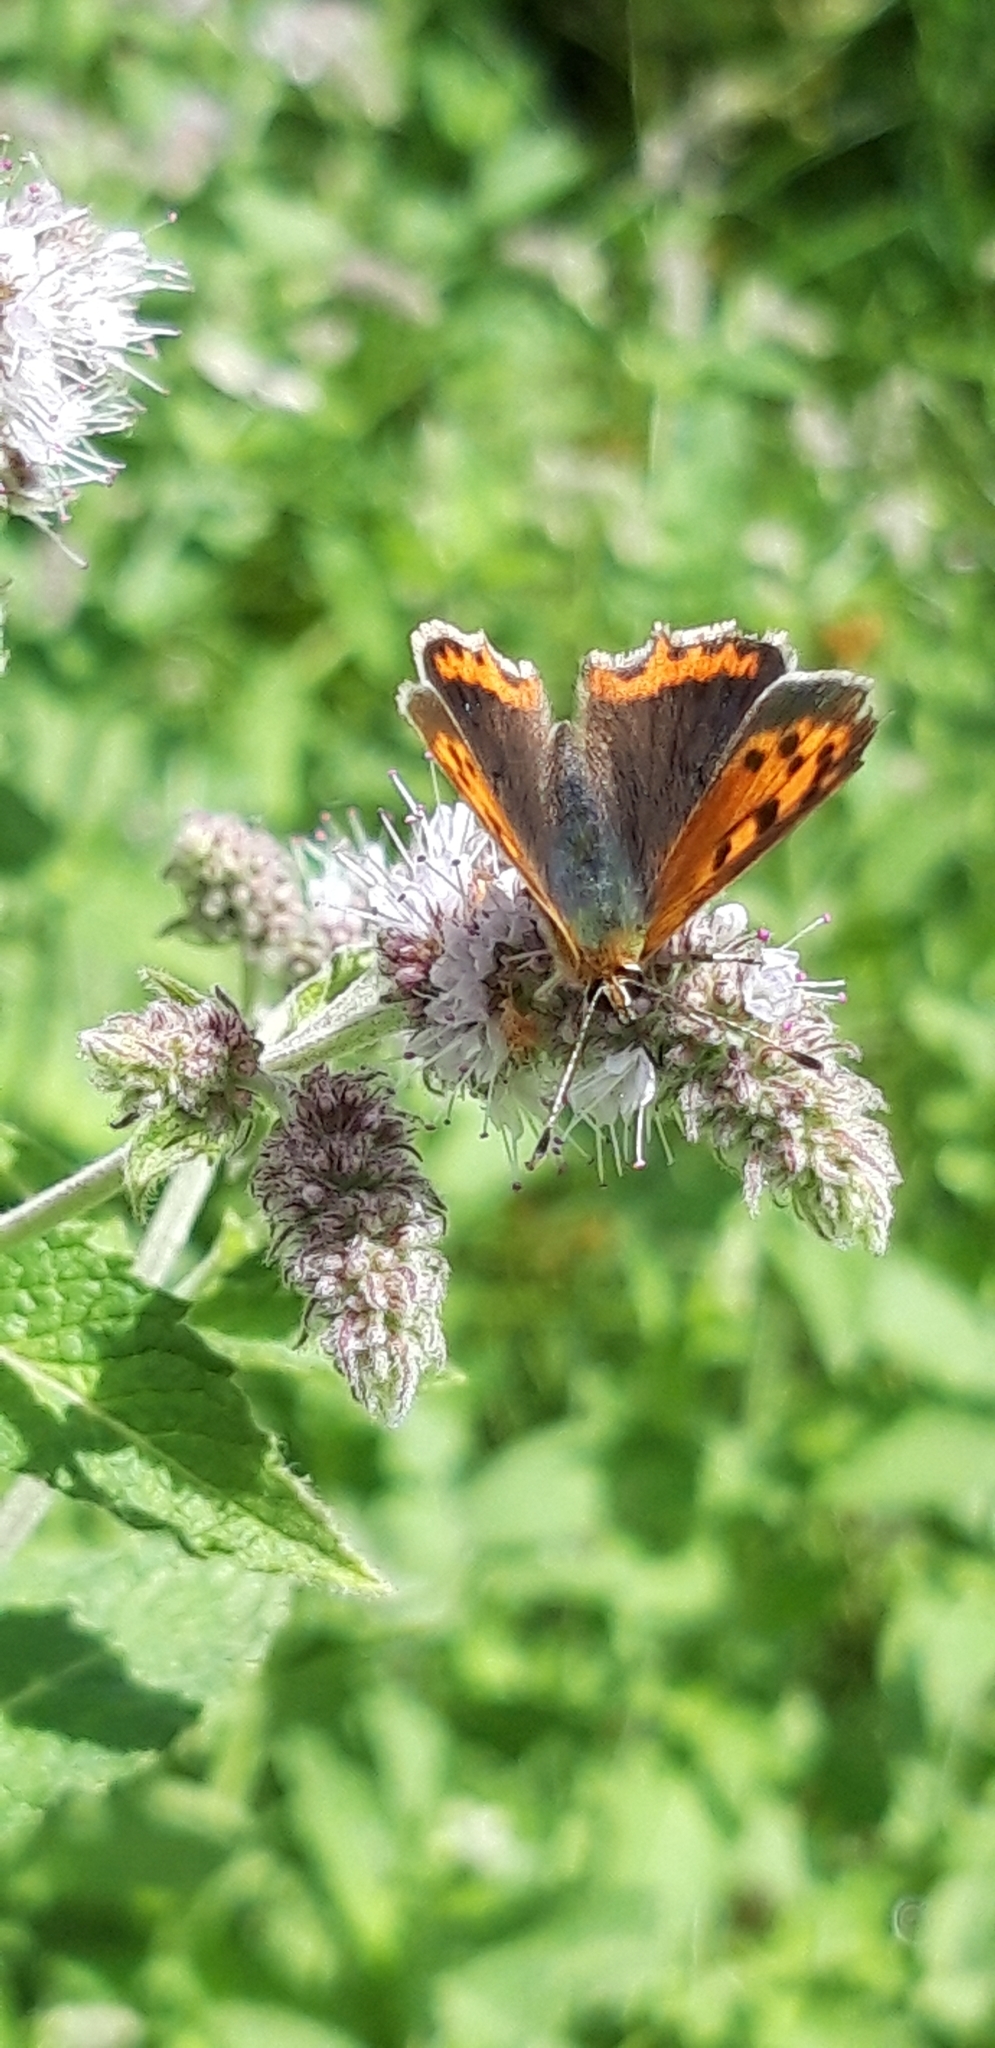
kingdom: Animalia
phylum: Arthropoda
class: Insecta
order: Lepidoptera
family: Lycaenidae
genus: Lycaena
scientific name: Lycaena phlaeas
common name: Small copper
